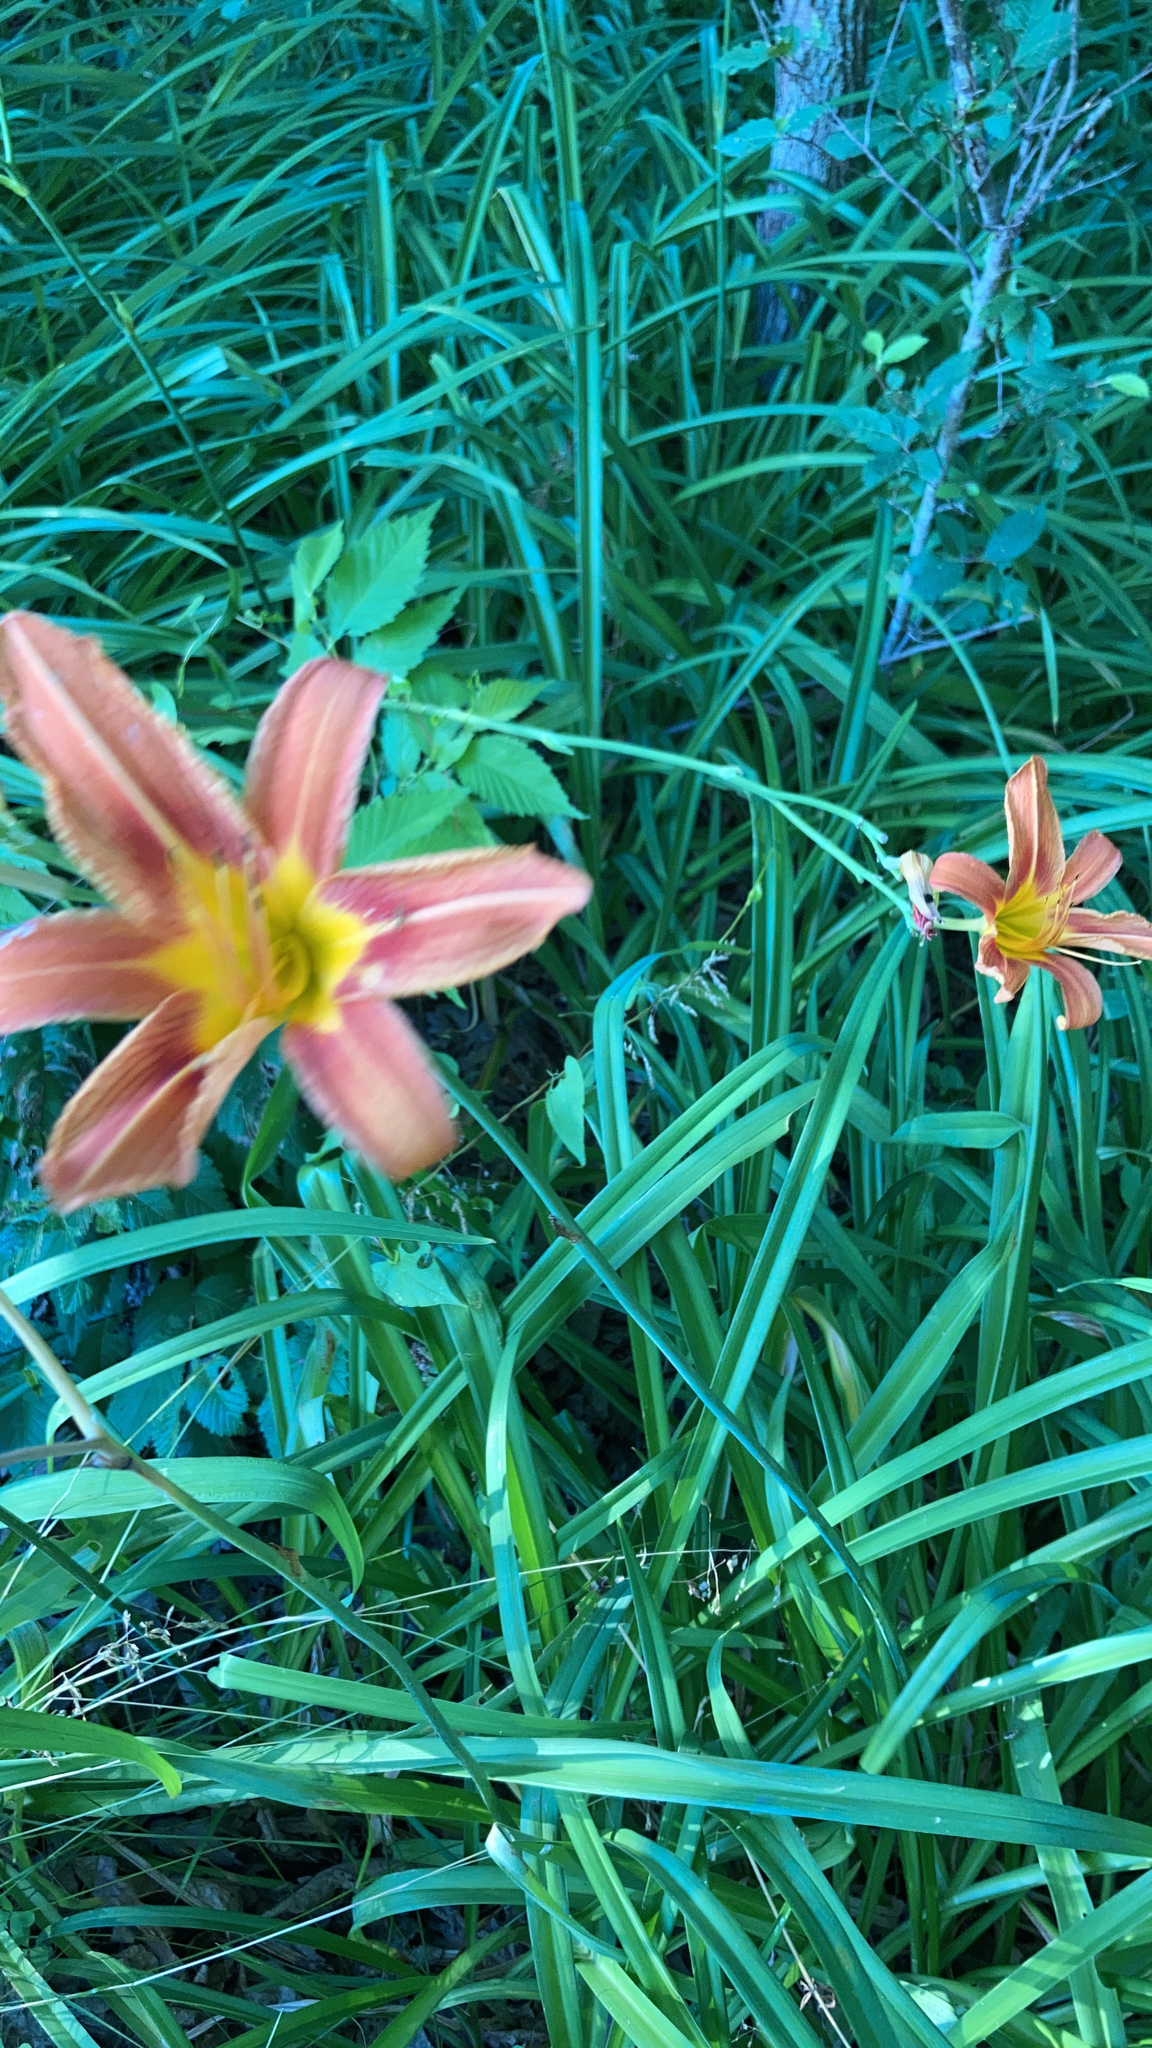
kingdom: Plantae
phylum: Tracheophyta
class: Liliopsida
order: Asparagales
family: Asphodelaceae
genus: Hemerocallis
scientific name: Hemerocallis fulva
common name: Orange day-lily
